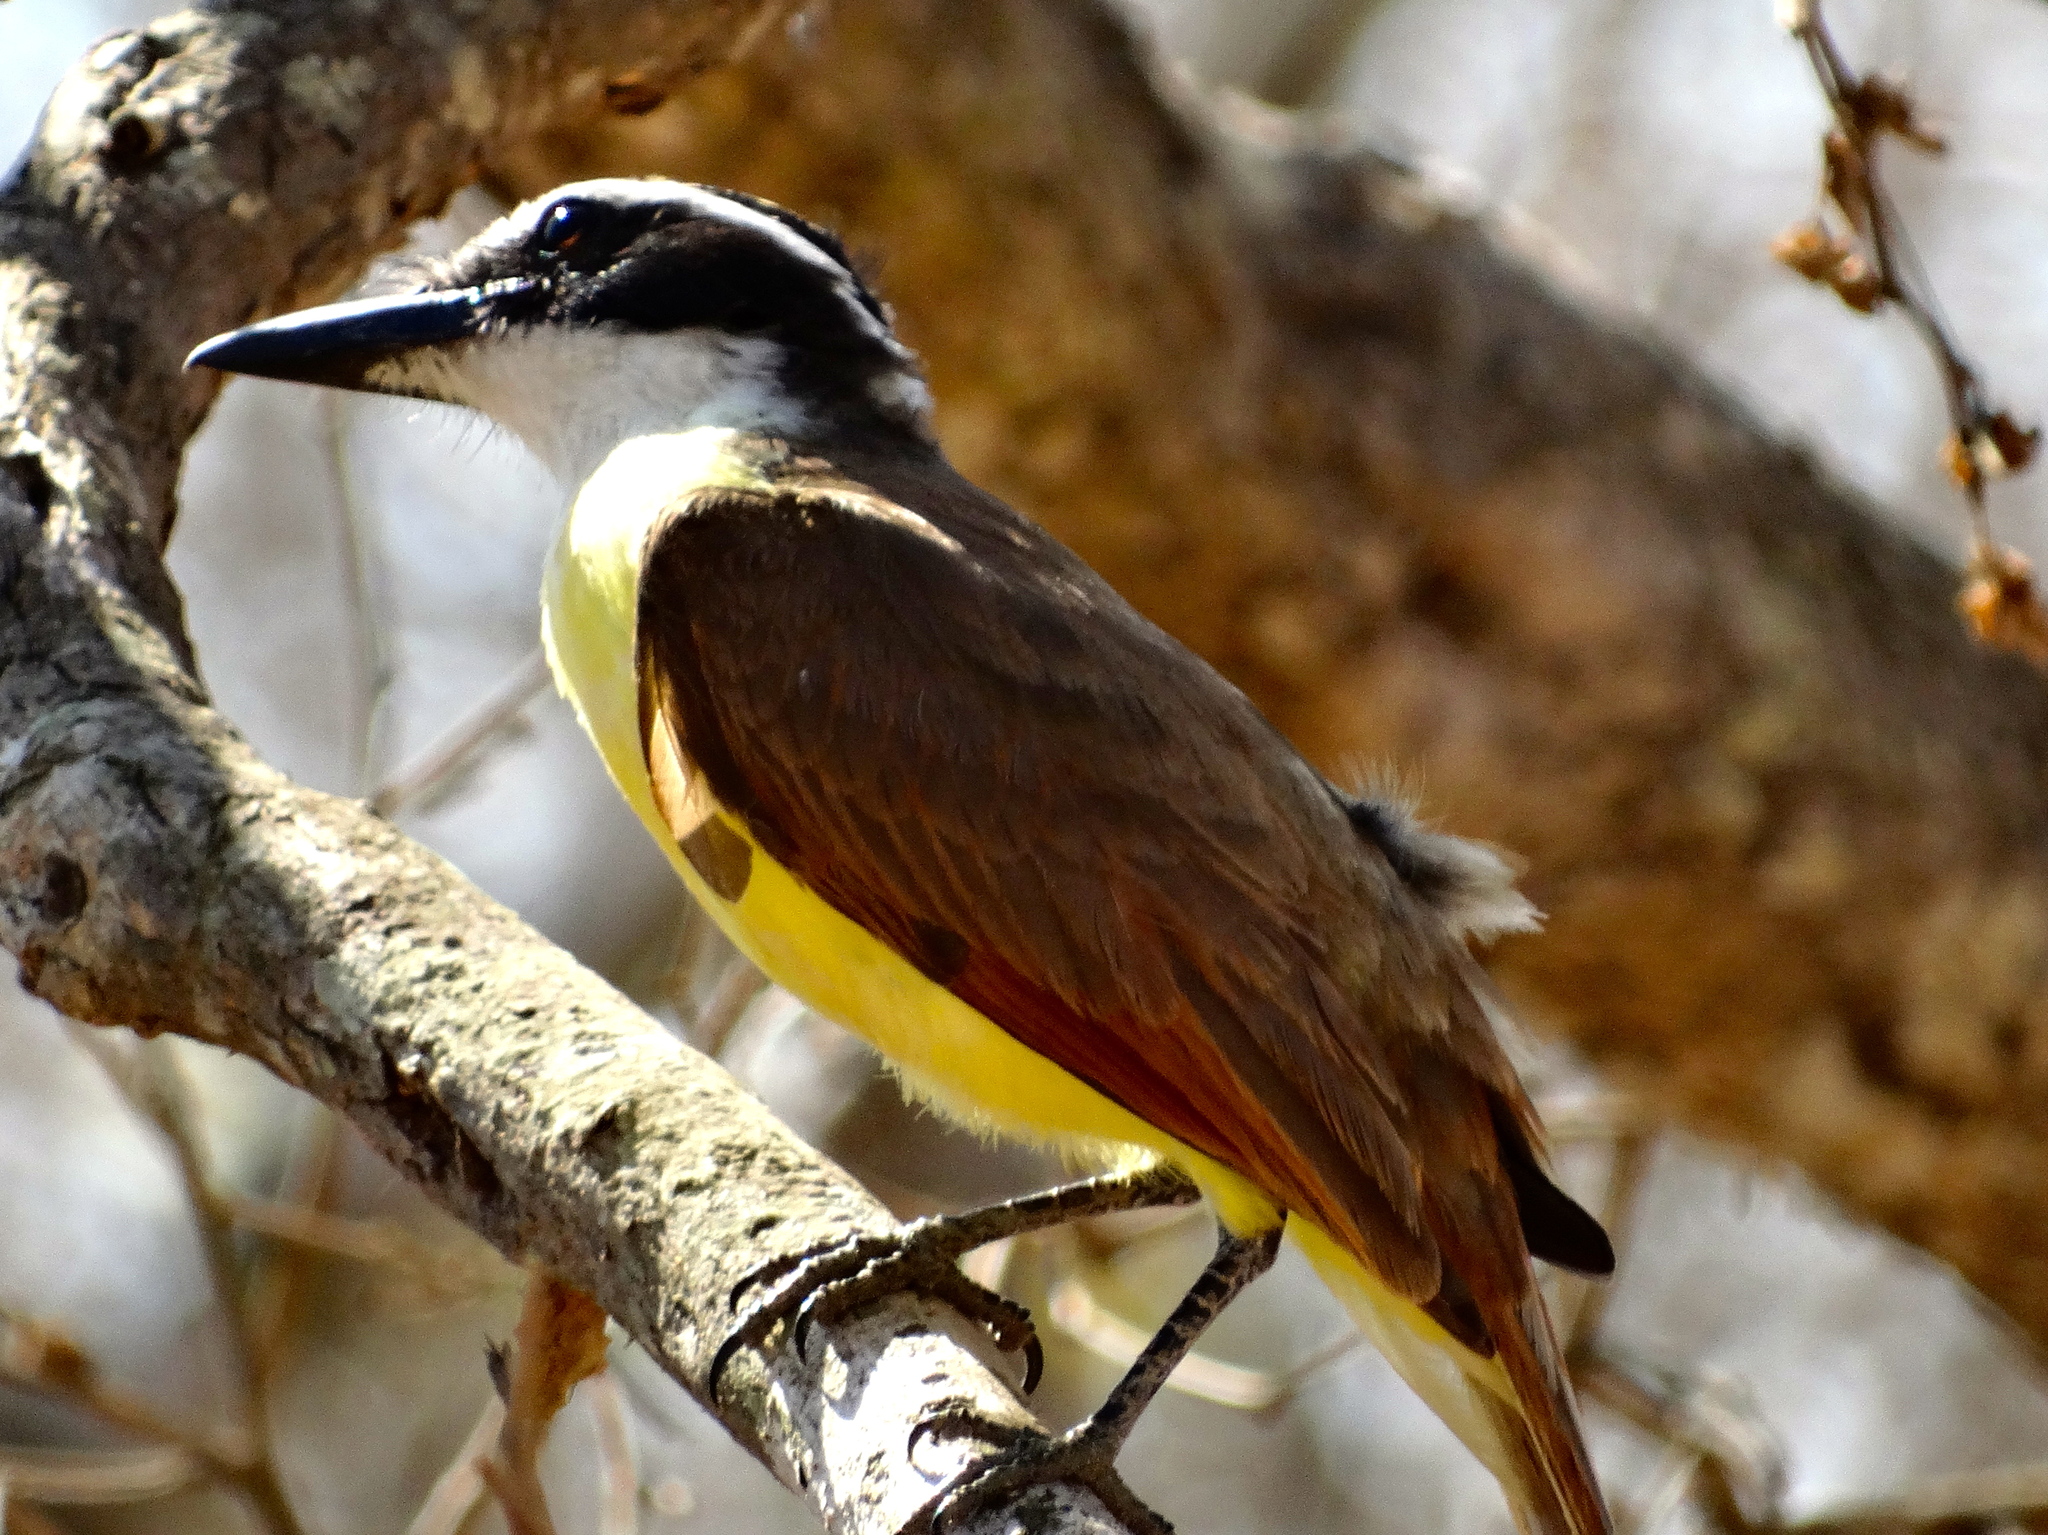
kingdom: Animalia
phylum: Chordata
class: Aves
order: Passeriformes
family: Tyrannidae
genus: Pitangus
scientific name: Pitangus sulphuratus
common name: Great kiskadee
